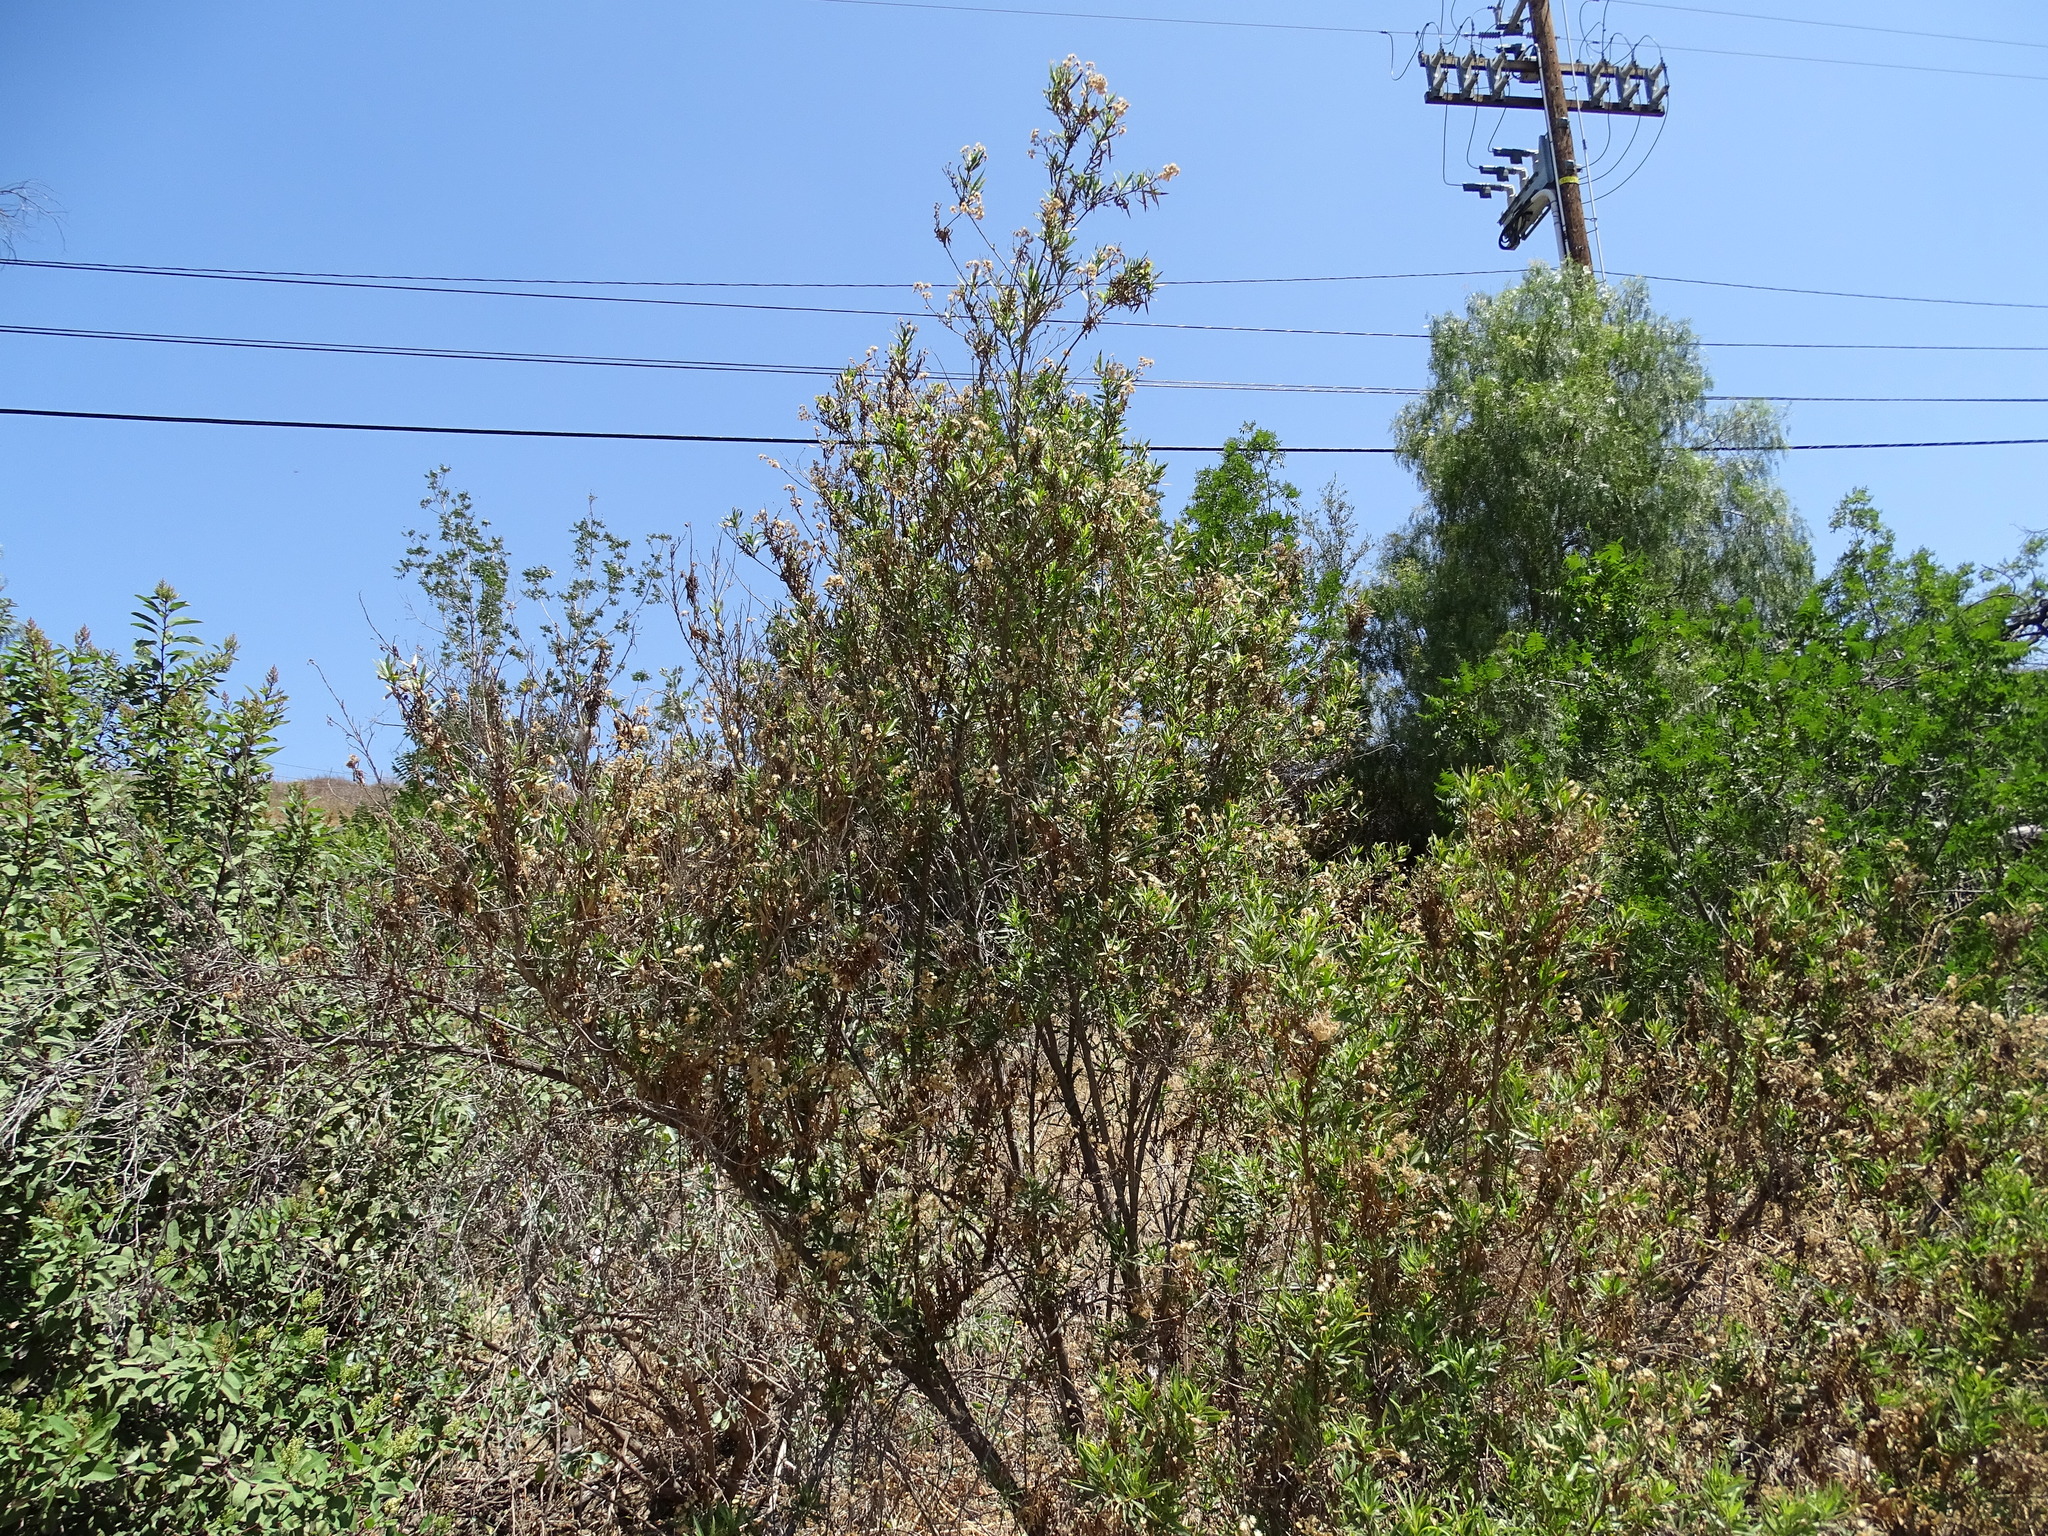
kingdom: Plantae
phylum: Tracheophyta
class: Magnoliopsida
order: Asterales
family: Asteraceae
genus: Baccharis
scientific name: Baccharis salicifolia
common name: Sticky baccharis
